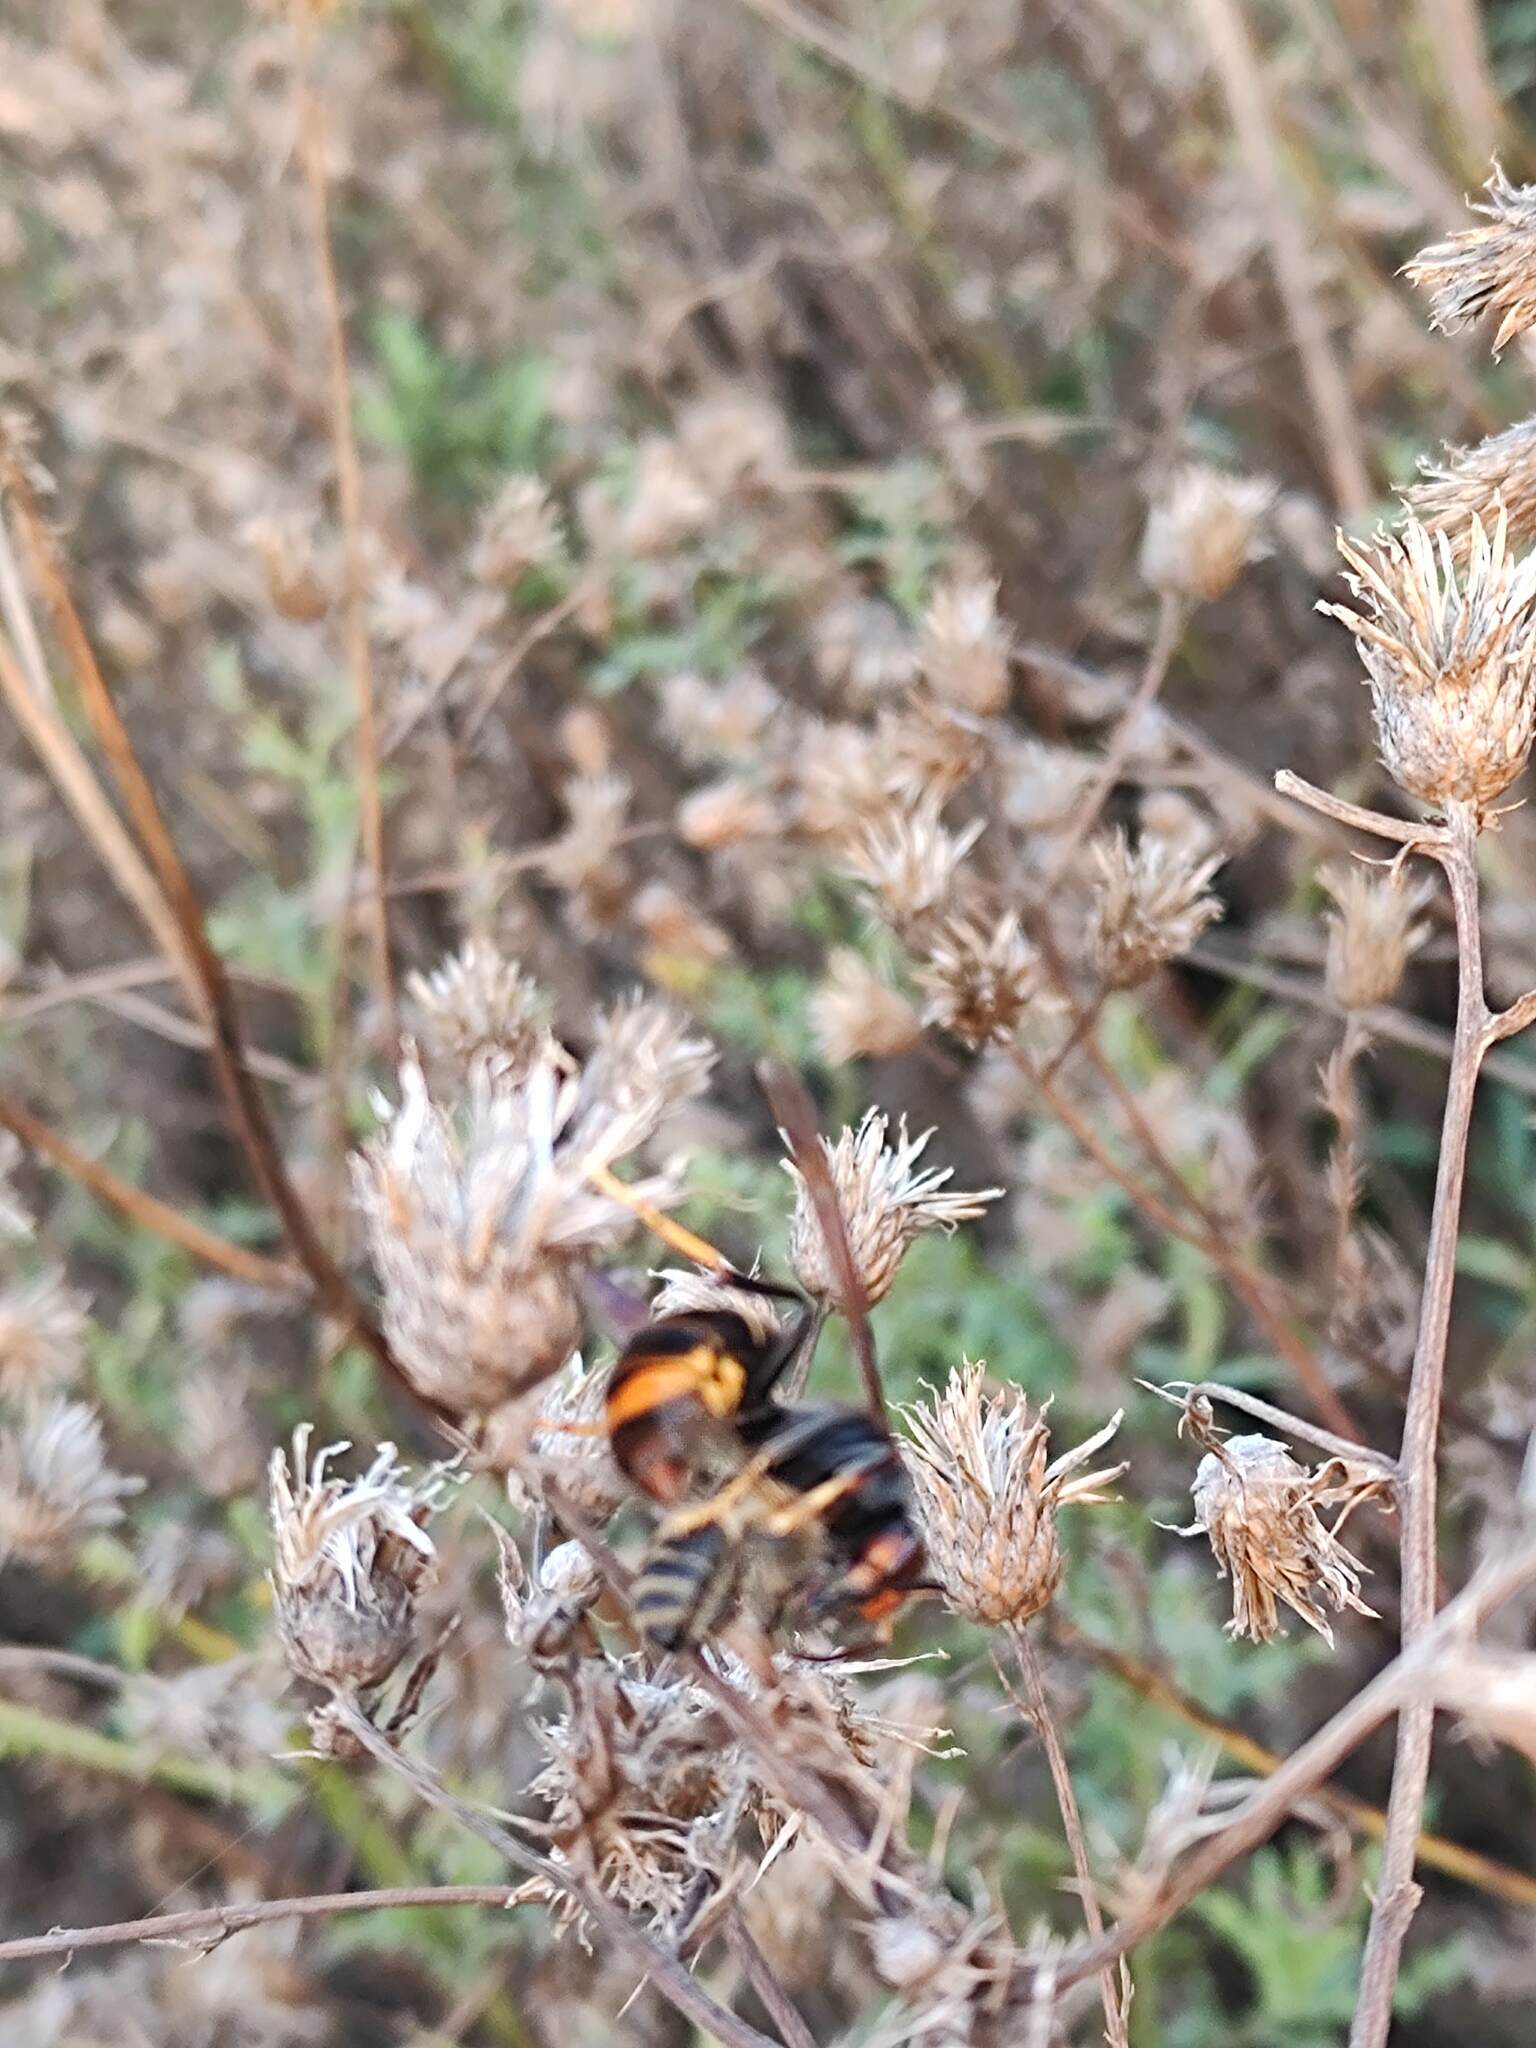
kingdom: Animalia
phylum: Arthropoda
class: Insecta
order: Hymenoptera
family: Vespidae
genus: Vespa
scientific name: Vespa velutina
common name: Asian hornet
